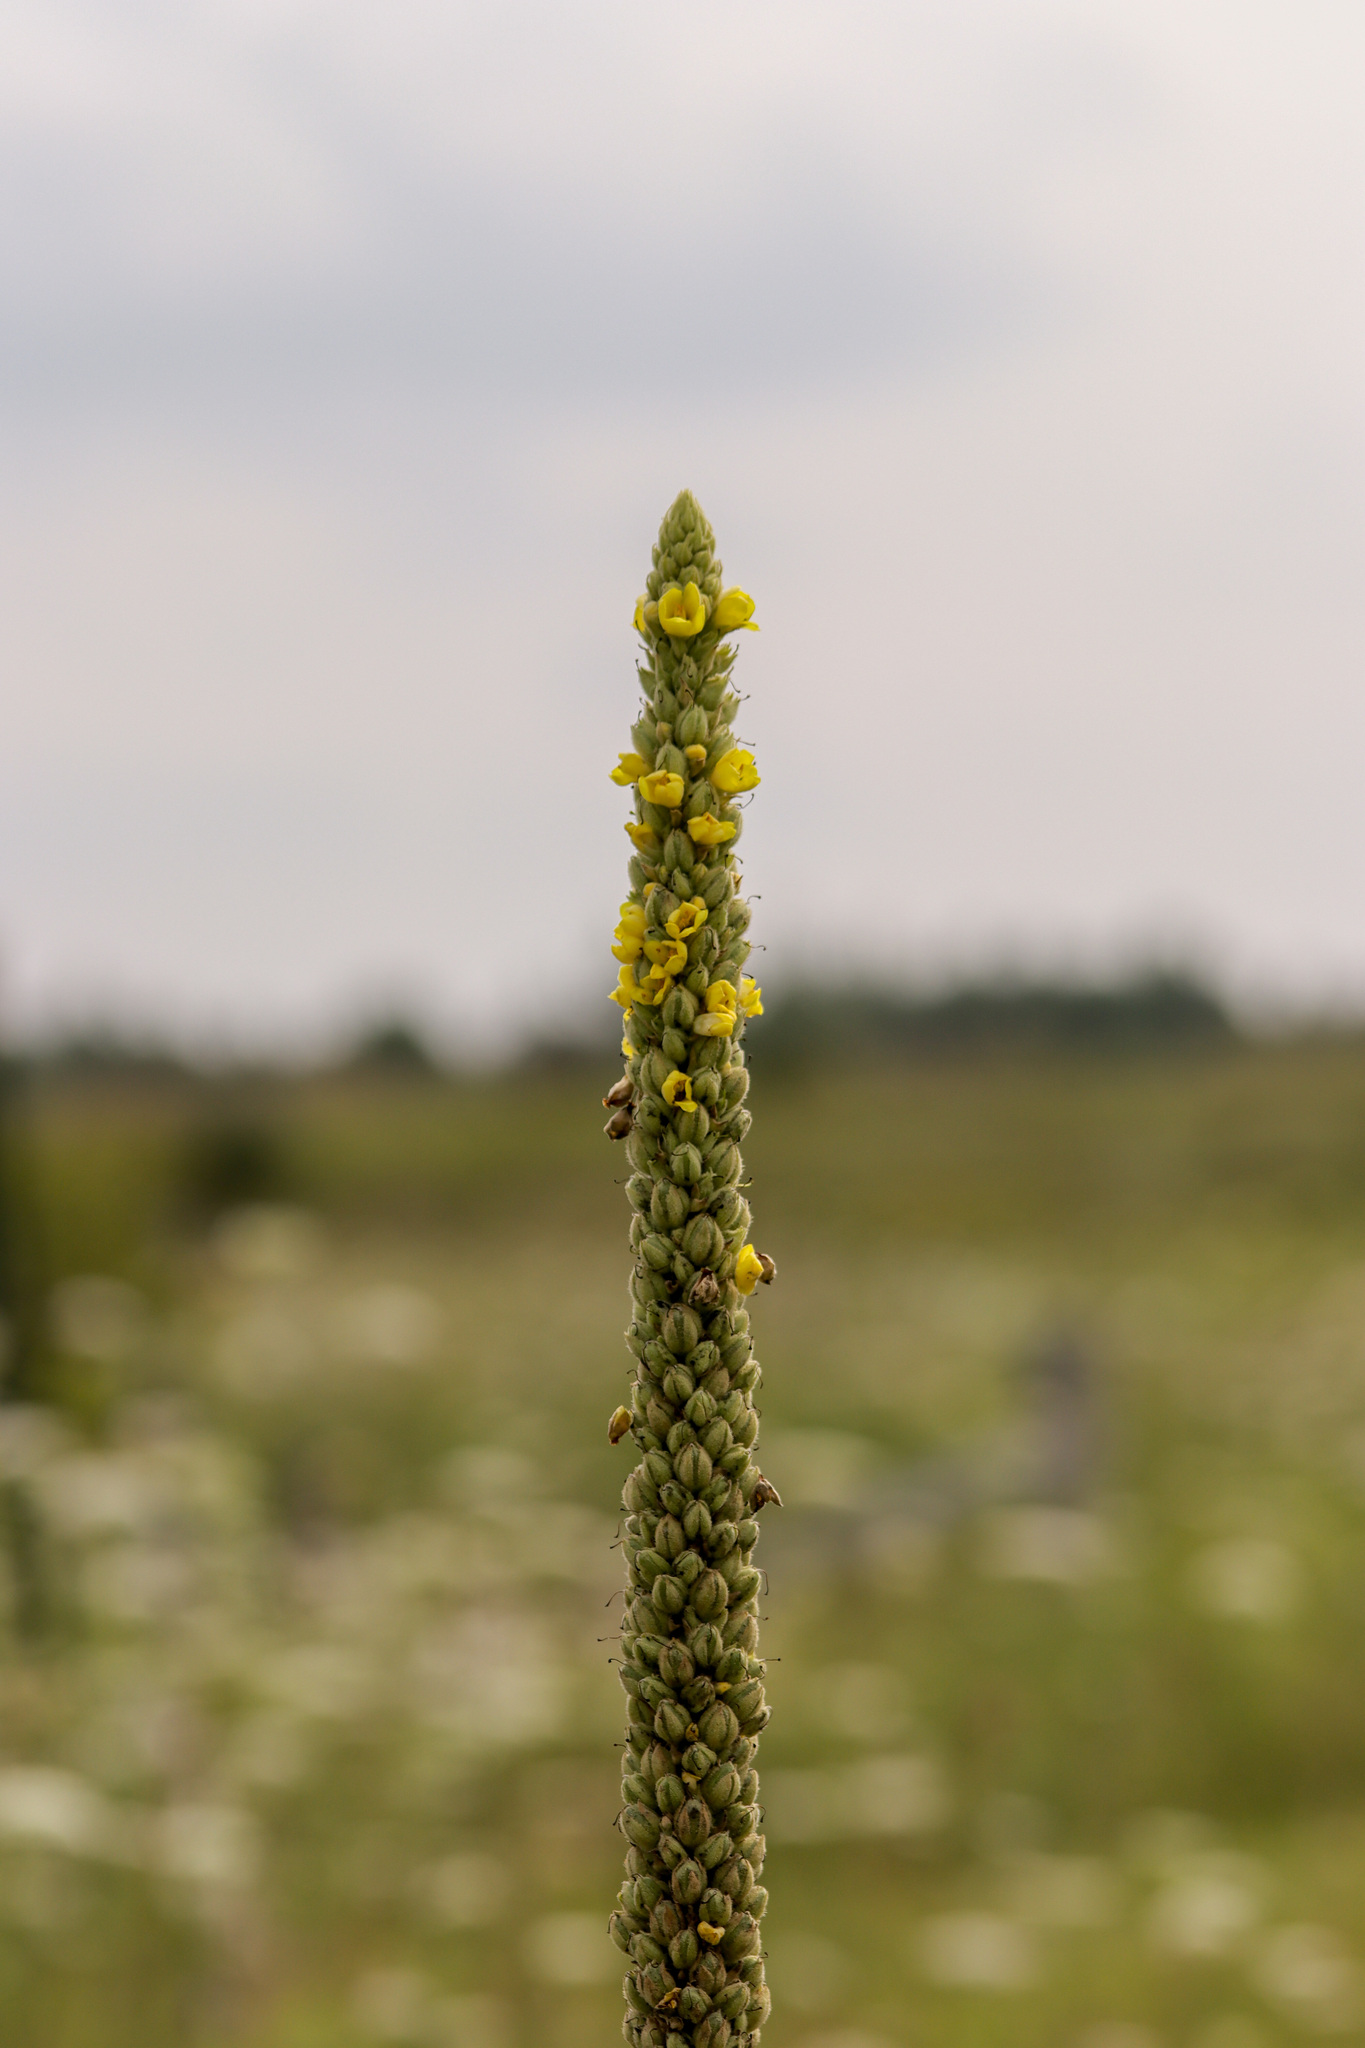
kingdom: Plantae
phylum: Tracheophyta
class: Magnoliopsida
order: Lamiales
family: Scrophulariaceae
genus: Verbascum
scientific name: Verbascum thapsus
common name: Common mullein
